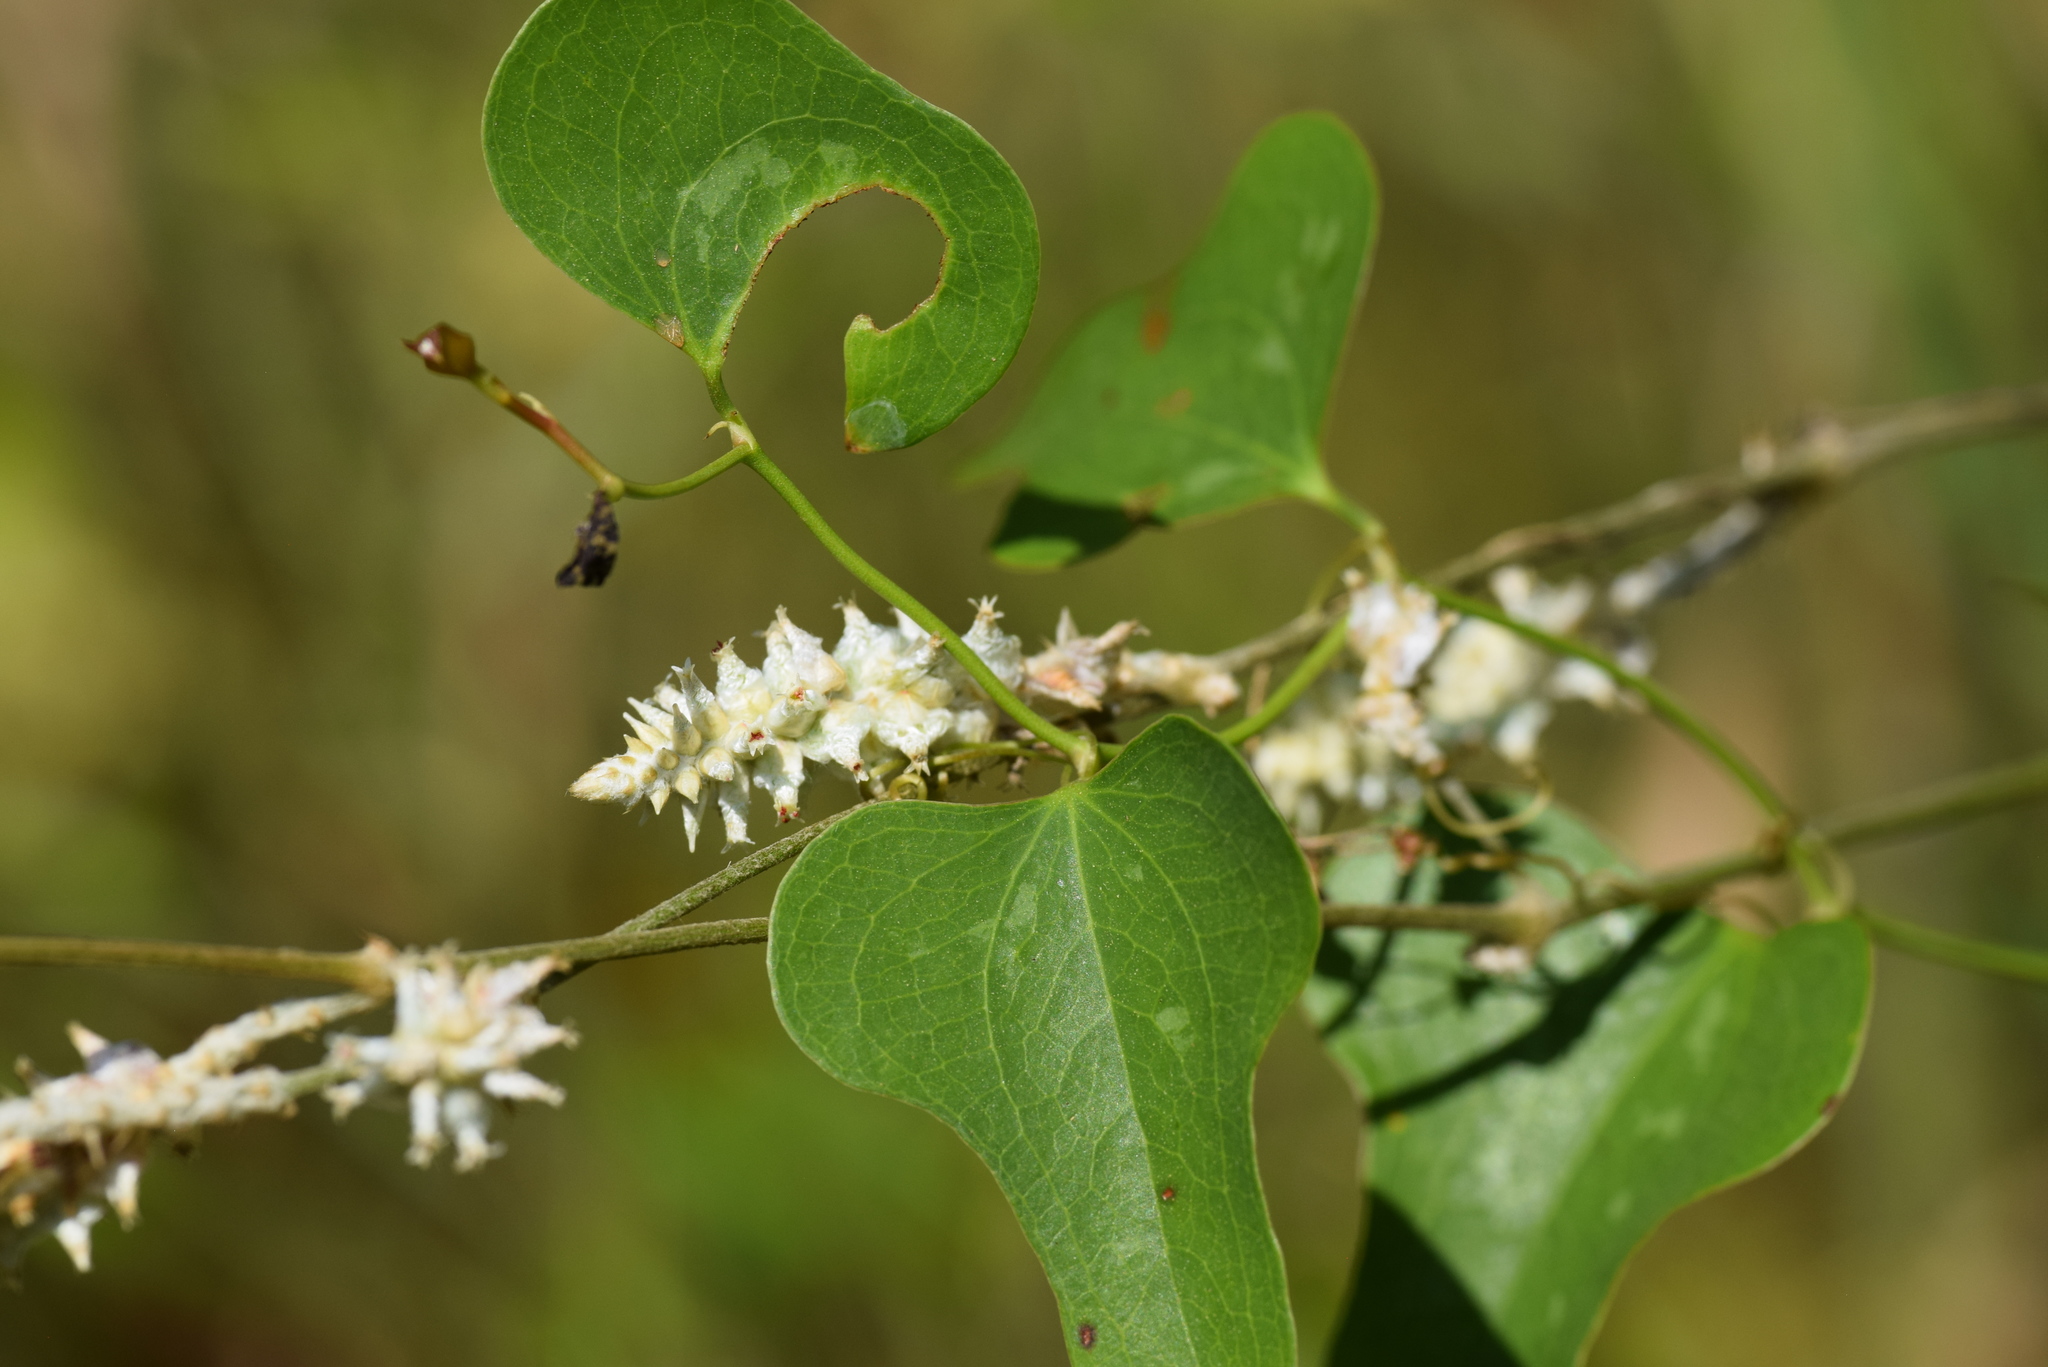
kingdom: Plantae
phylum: Tracheophyta
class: Magnoliopsida
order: Caryophyllales
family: Amaranthaceae
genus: Froelichia
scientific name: Froelichia floridana
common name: Florida snake-cotton
